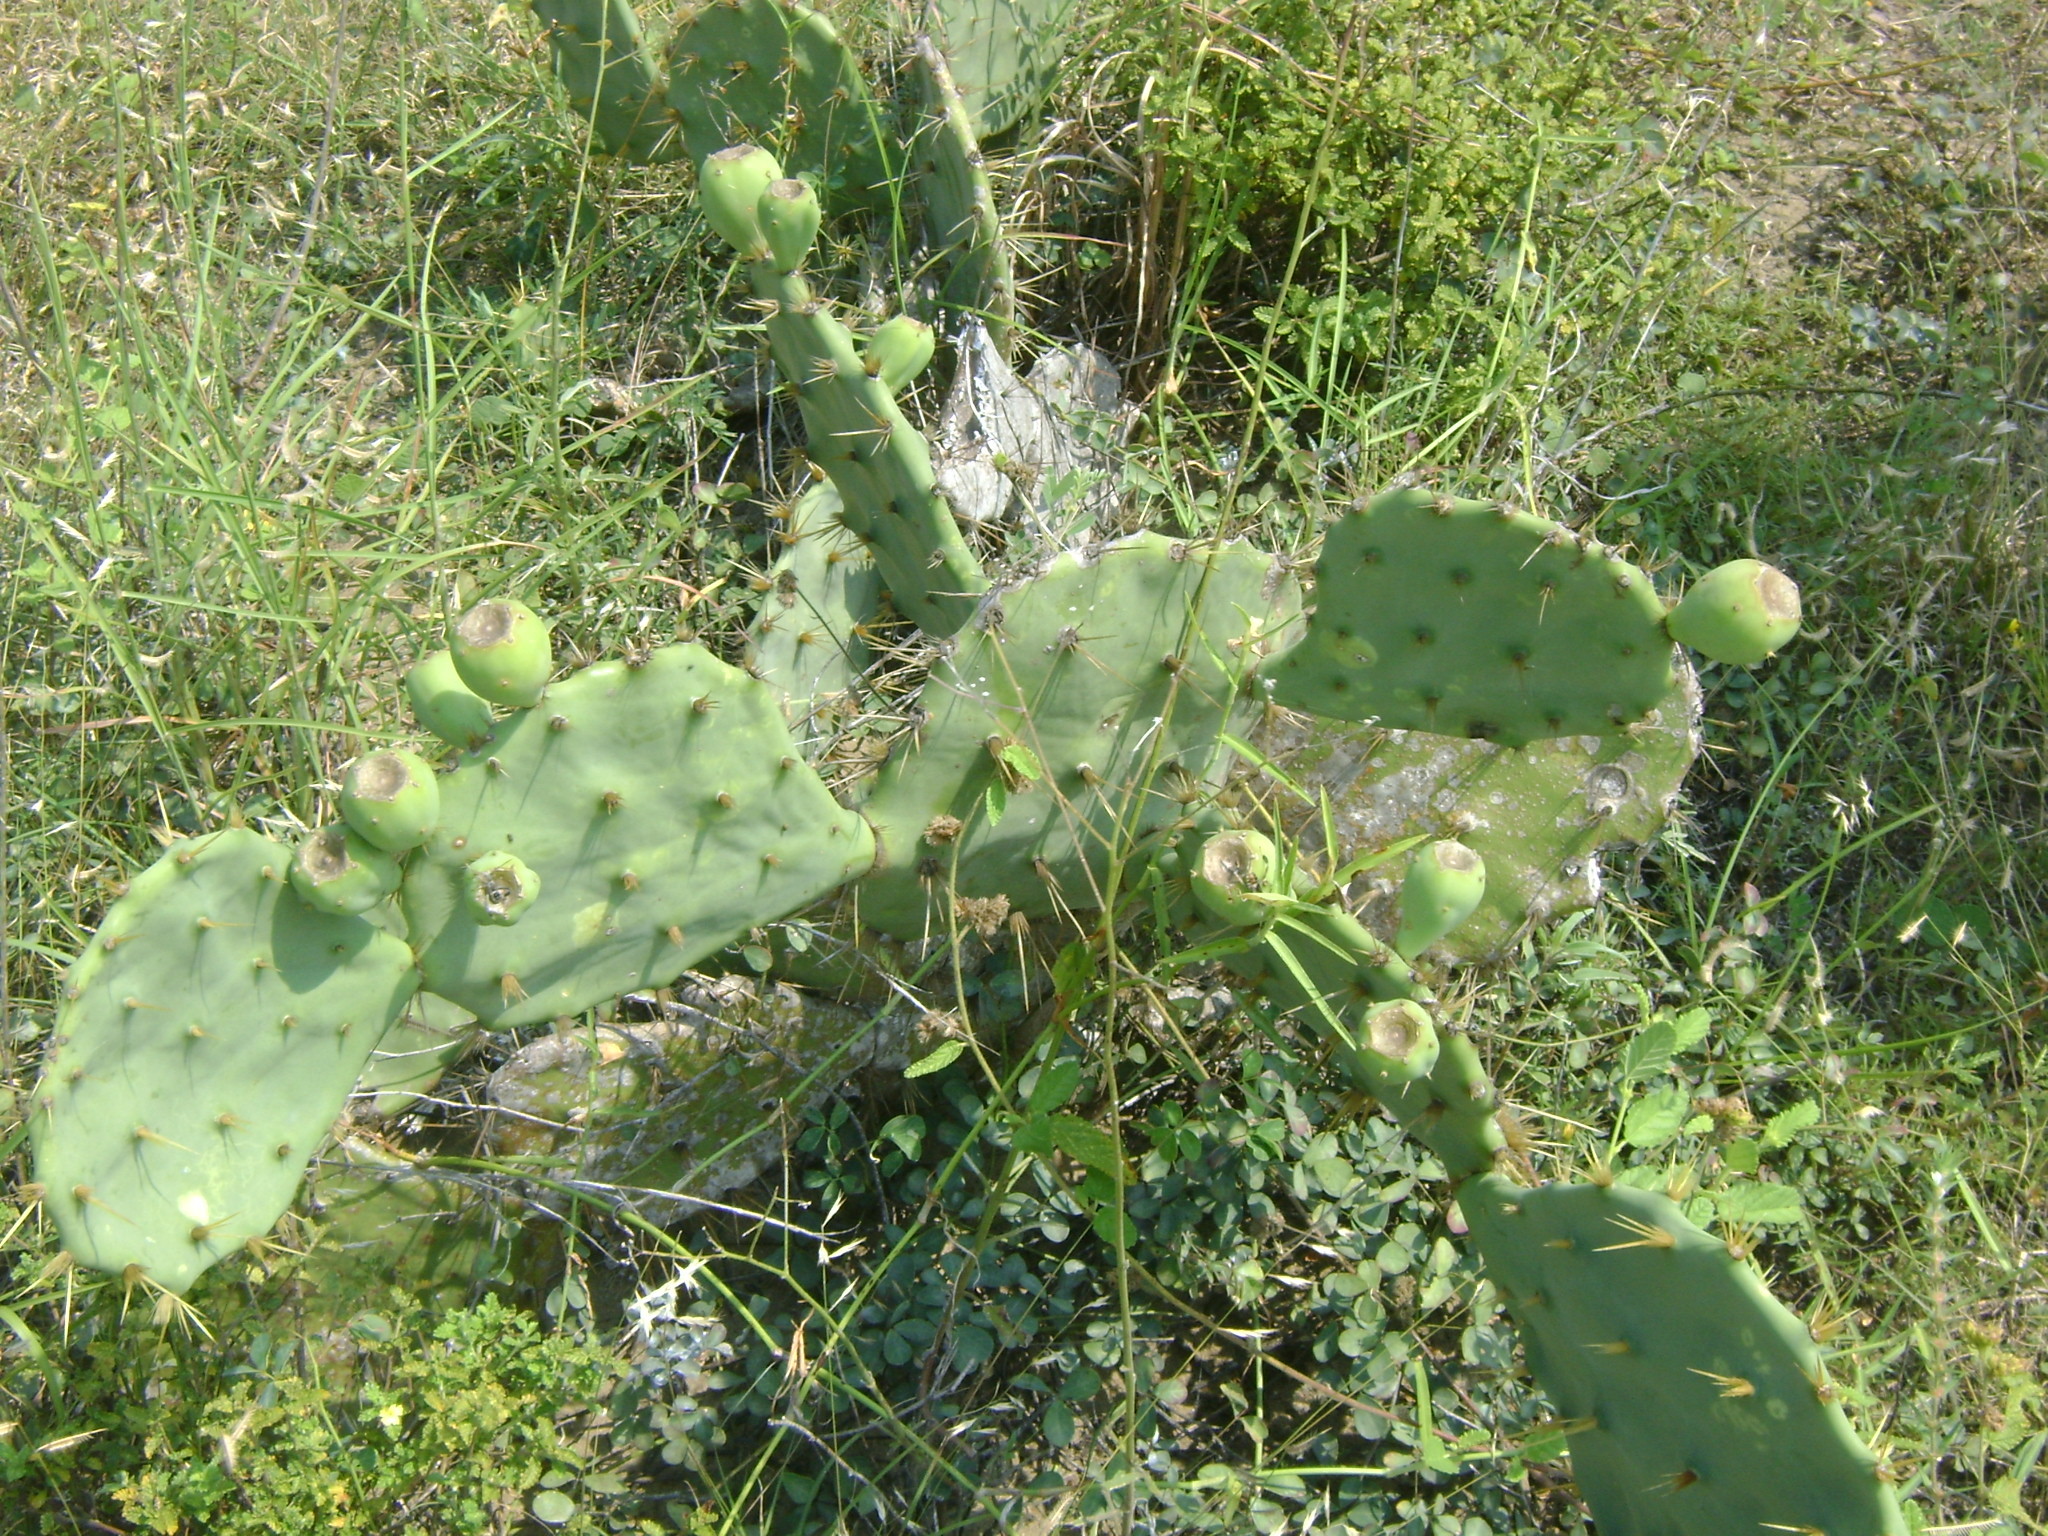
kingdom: Plantae
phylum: Tracheophyta
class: Magnoliopsida
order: Caryophyllales
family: Cactaceae
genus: Opuntia
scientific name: Opuntia stricta
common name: Erect pricklypear
